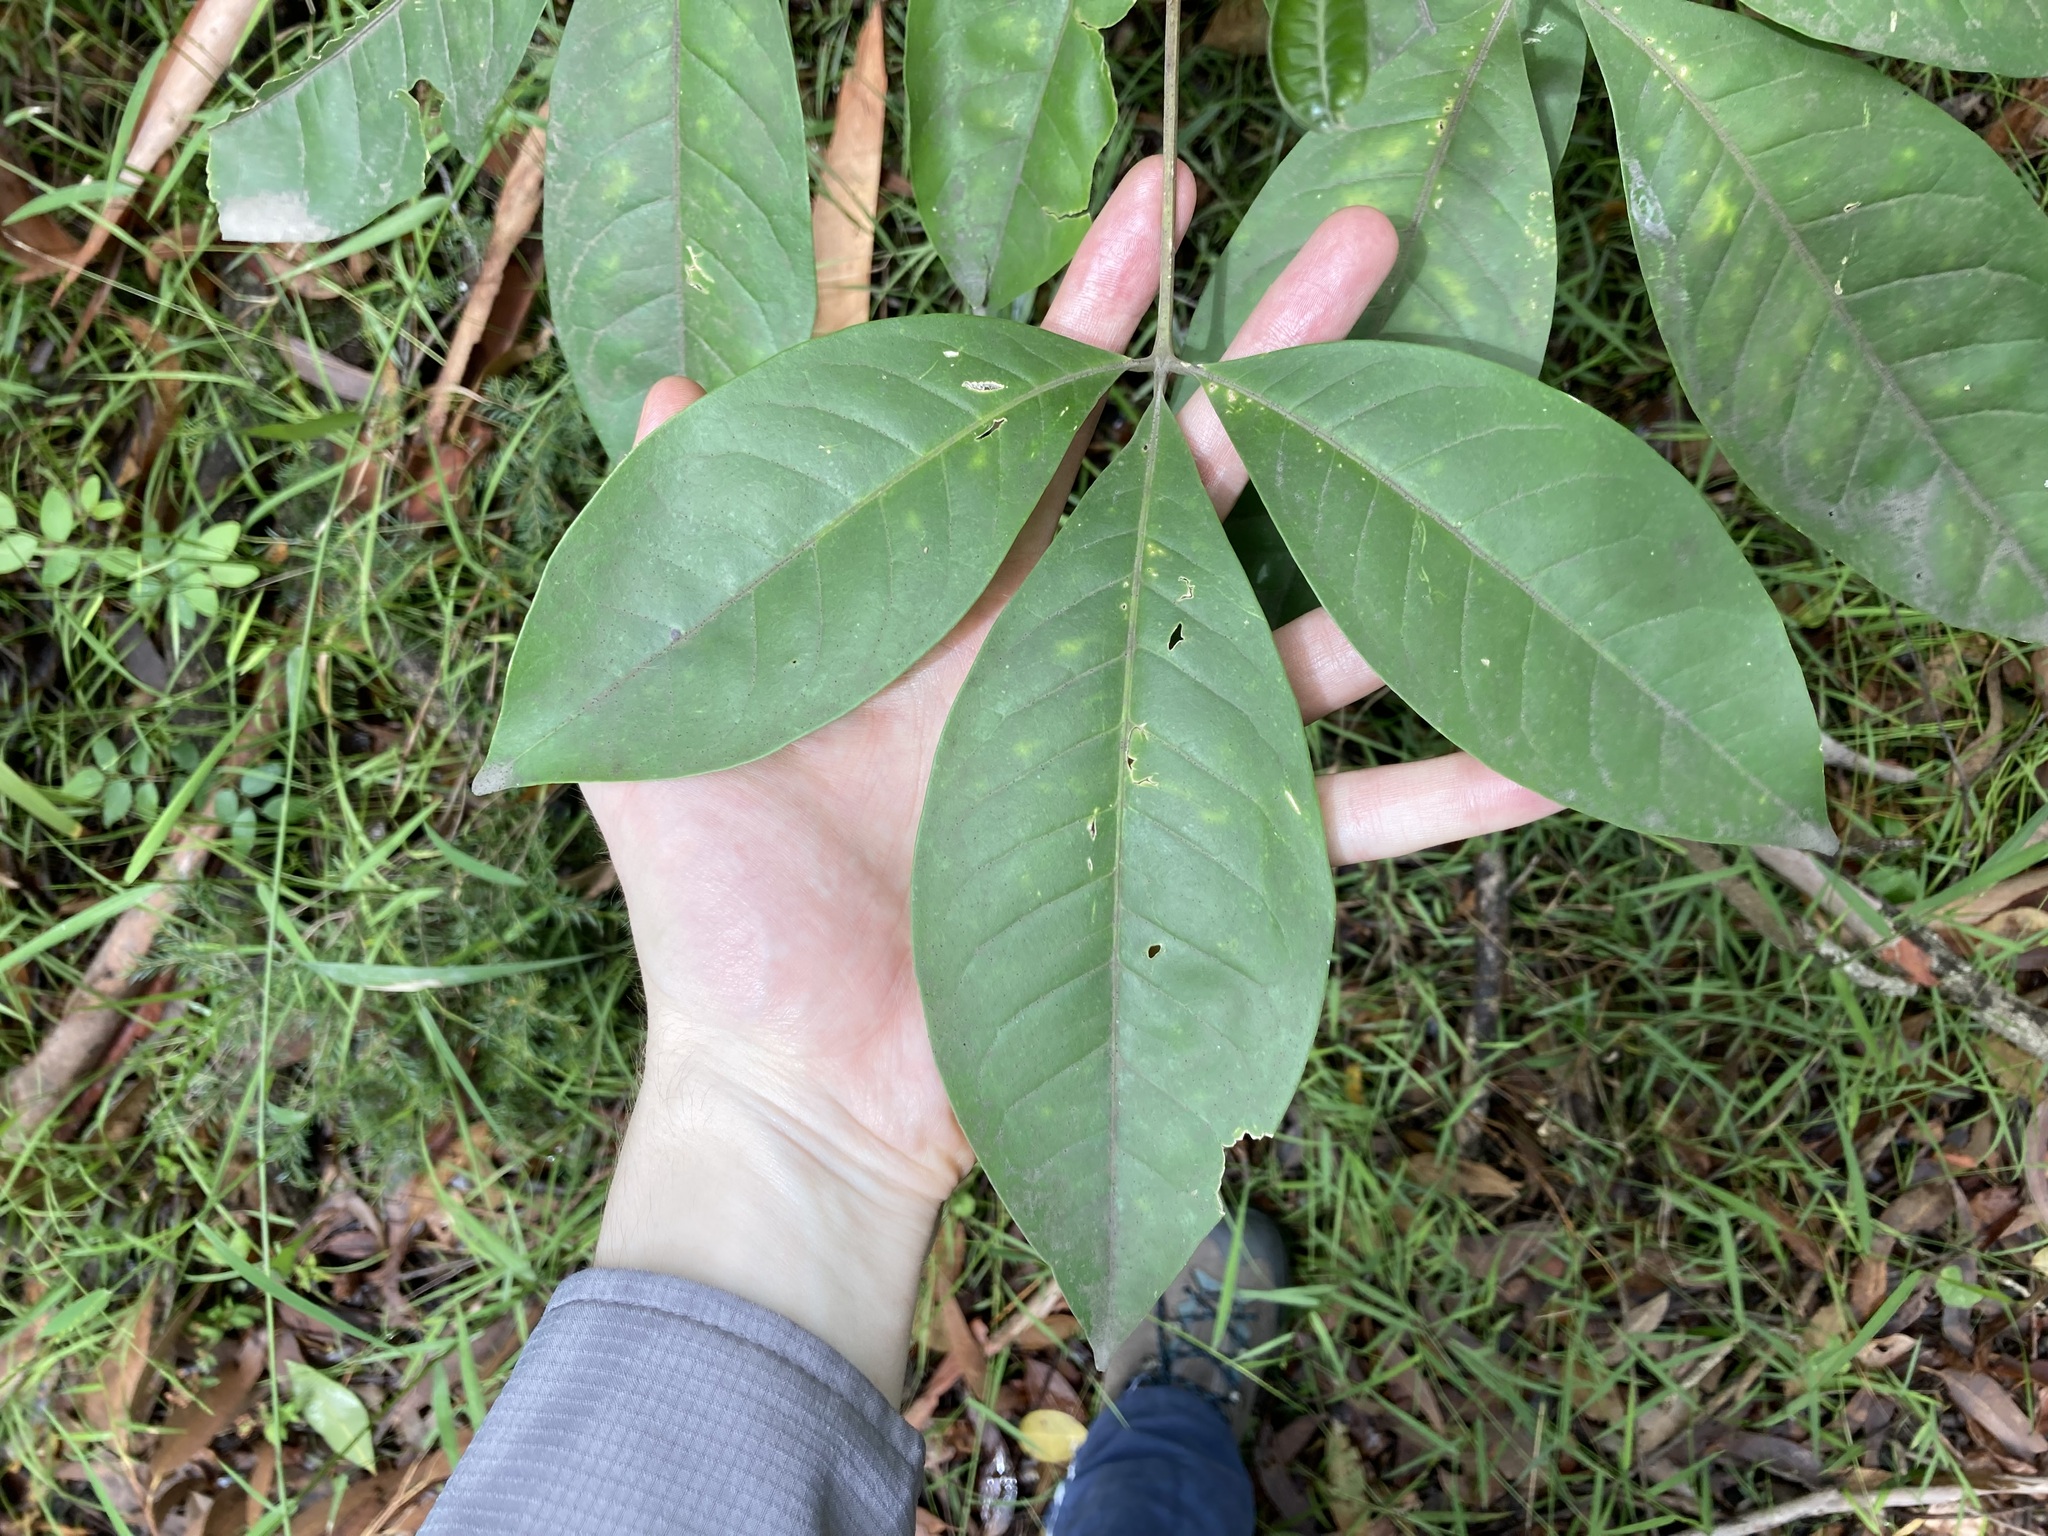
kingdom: Plantae
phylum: Tracheophyta
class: Magnoliopsida
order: Sapindales
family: Rutaceae
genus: Melicope
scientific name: Melicope elleryana
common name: Pink euodia
